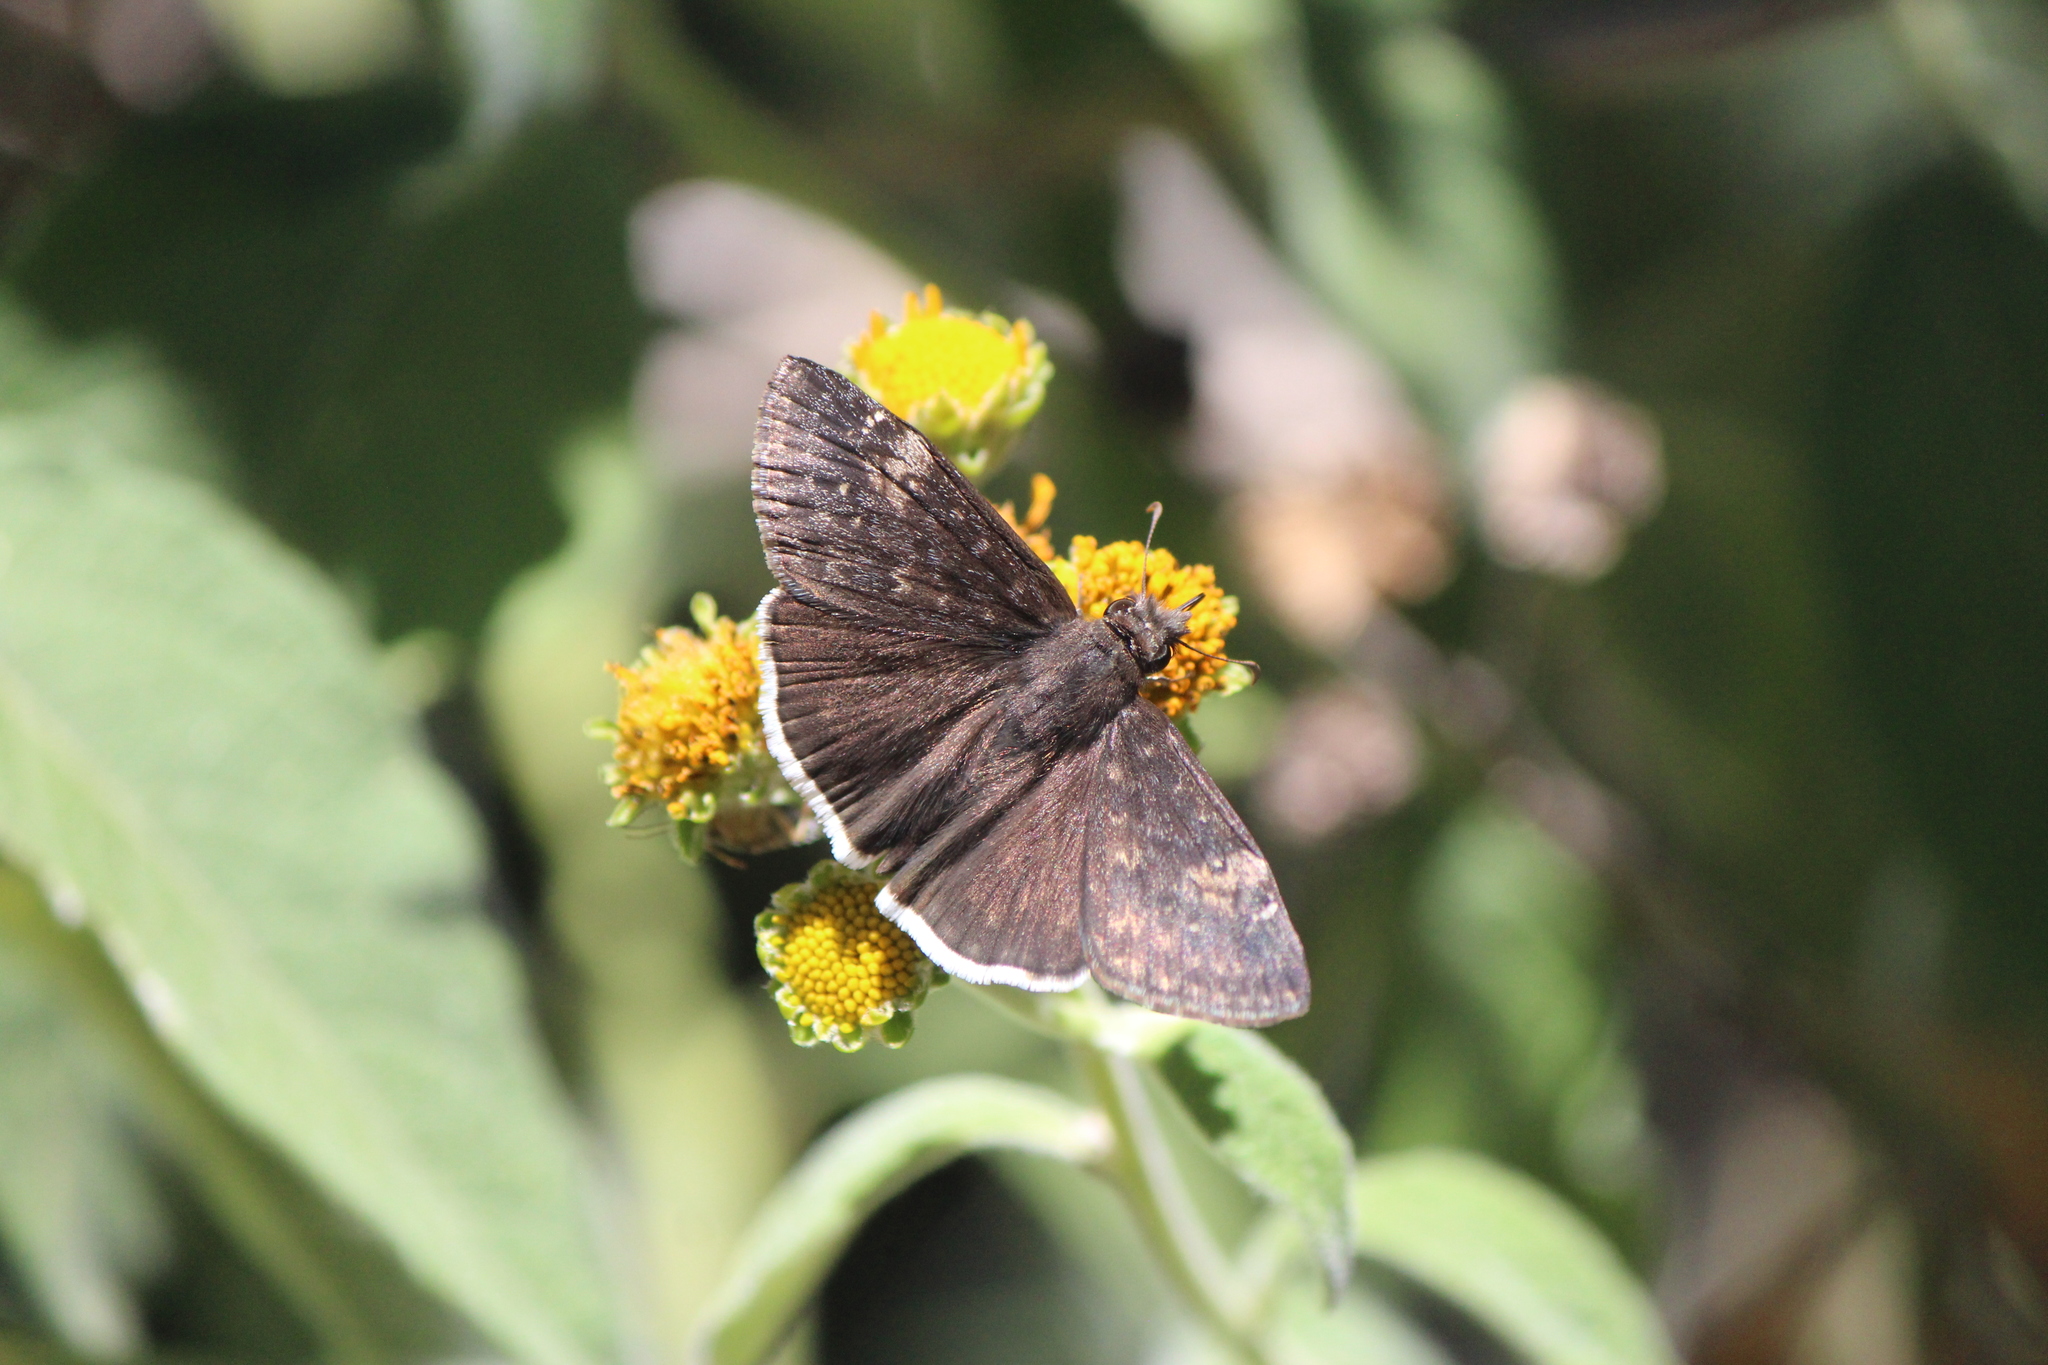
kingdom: Animalia
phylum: Arthropoda
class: Insecta
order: Lepidoptera
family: Hesperiidae
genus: Erynnis
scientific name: Erynnis funeralis
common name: Funereal duskywing
